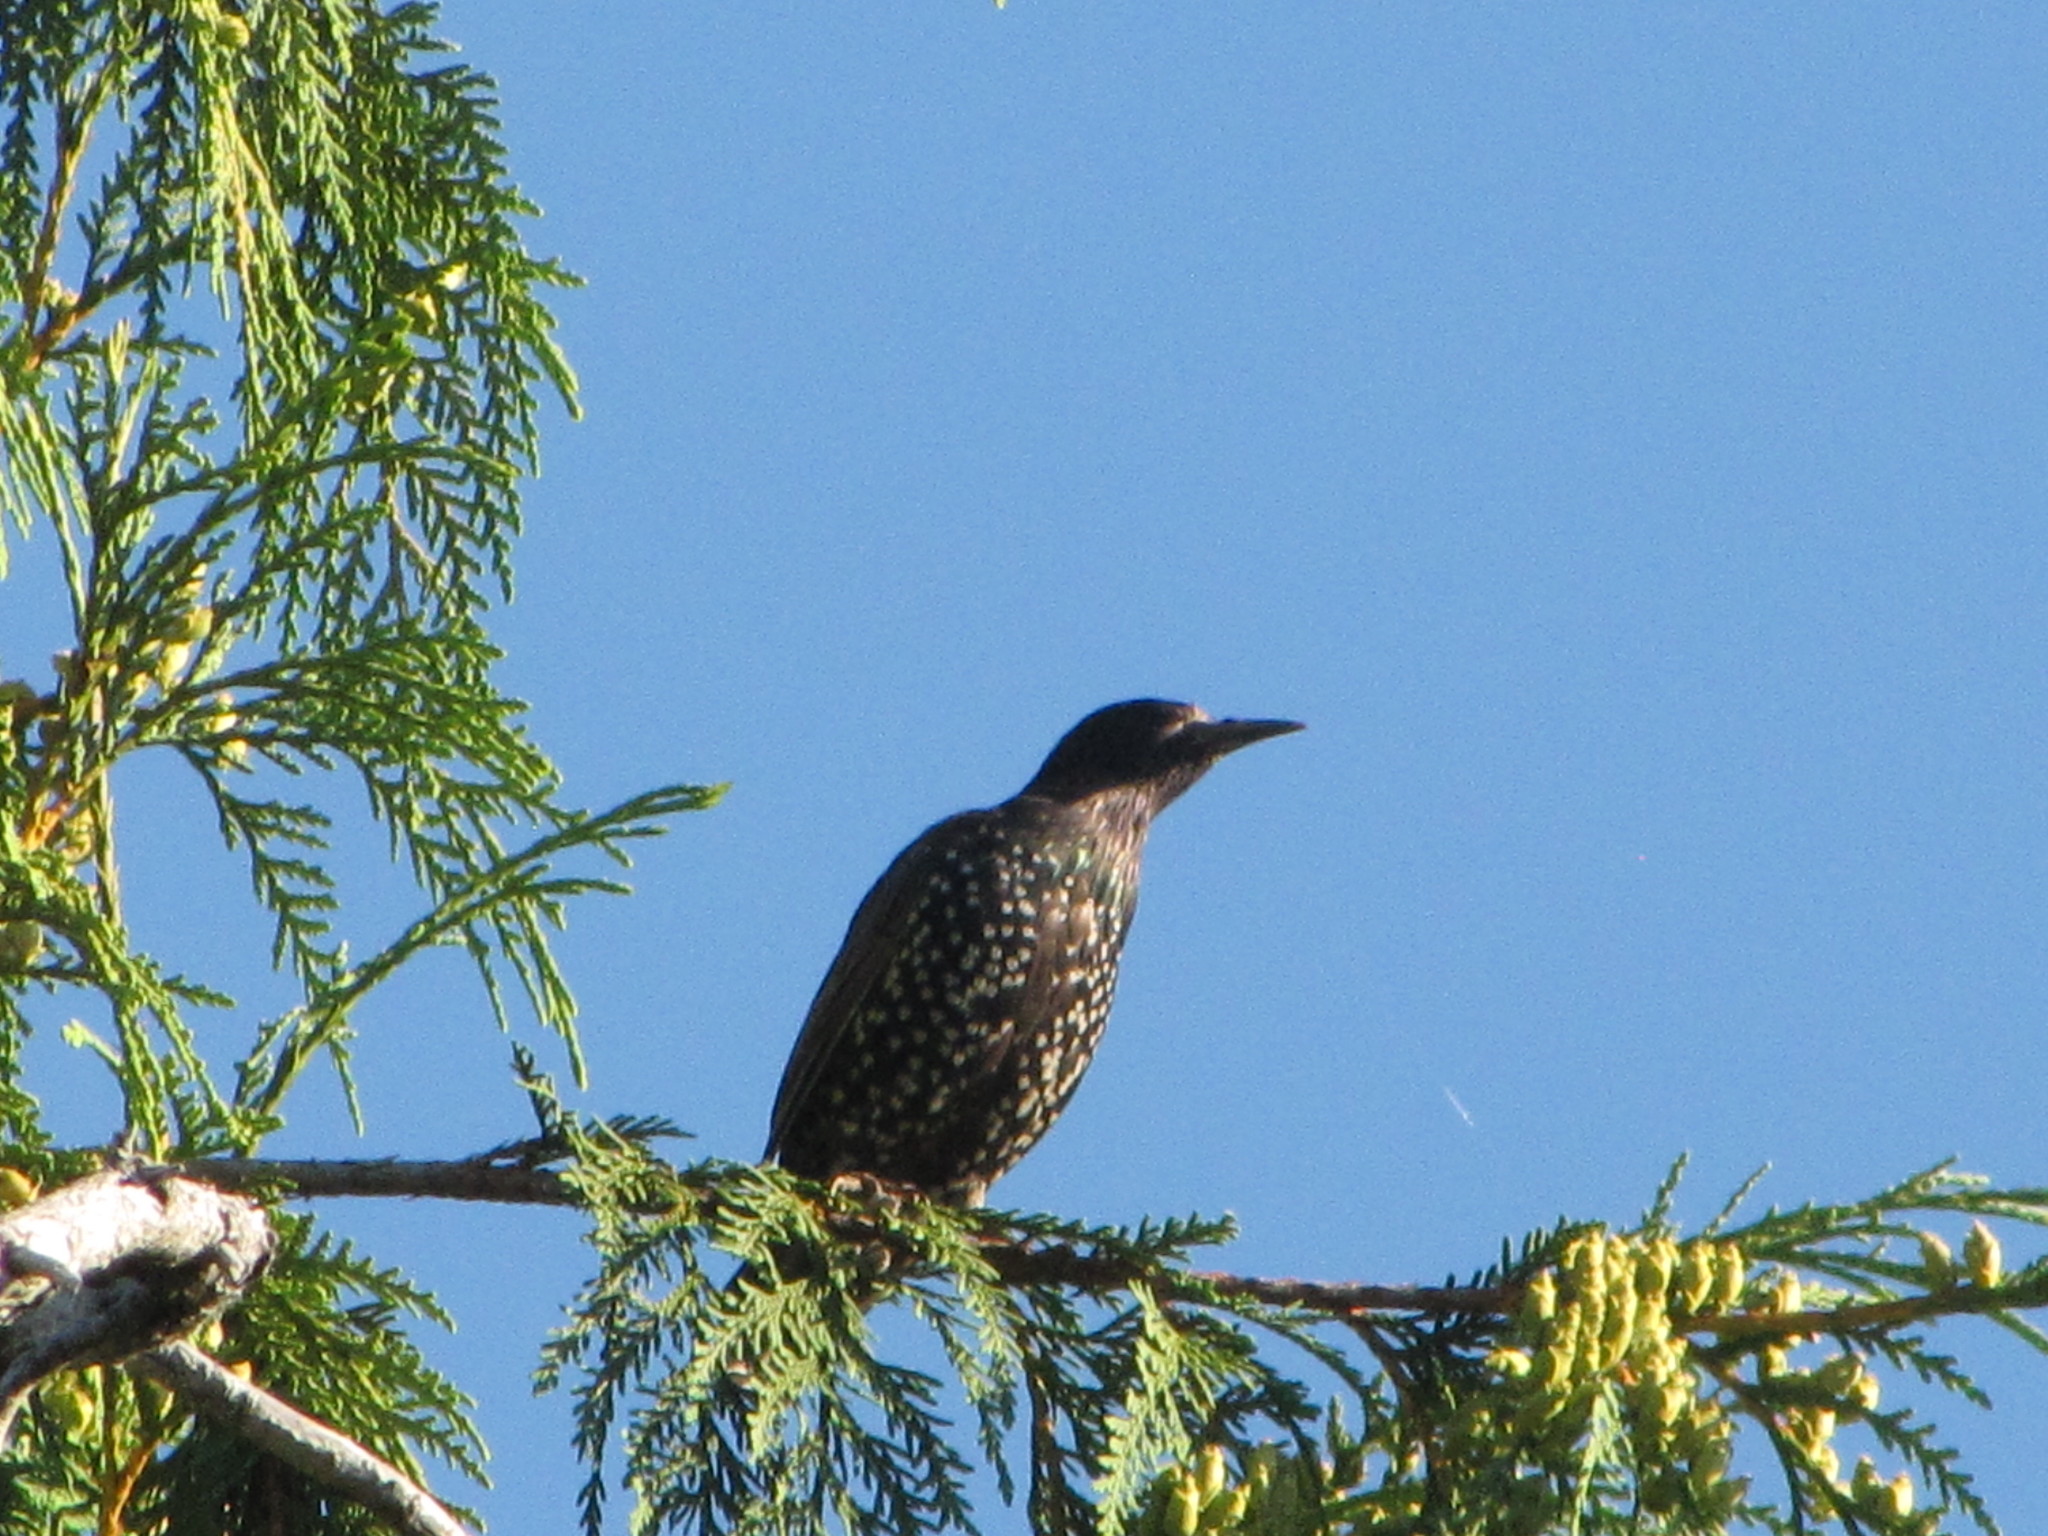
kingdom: Animalia
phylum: Chordata
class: Aves
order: Passeriformes
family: Sturnidae
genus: Sturnus
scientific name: Sturnus vulgaris
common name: Common starling
